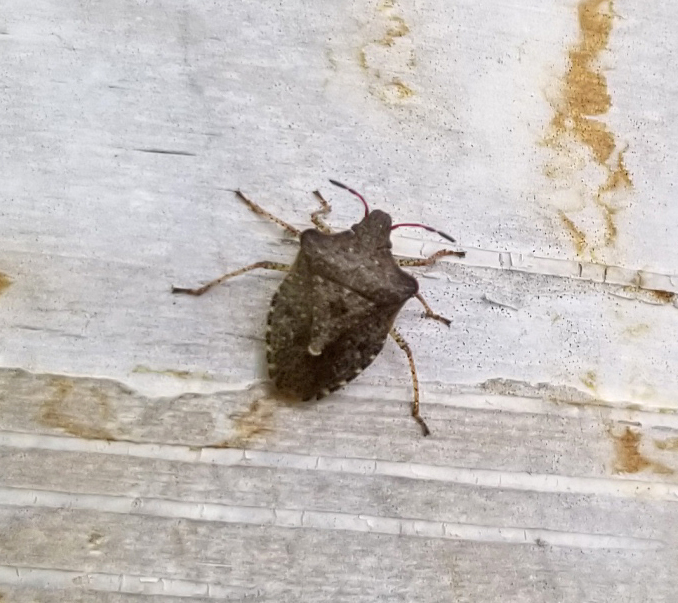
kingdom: Animalia
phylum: Arthropoda
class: Insecta
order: Hemiptera
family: Pentatomidae
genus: Euschistus
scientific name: Euschistus tristigmus
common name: Dusky stink bug
